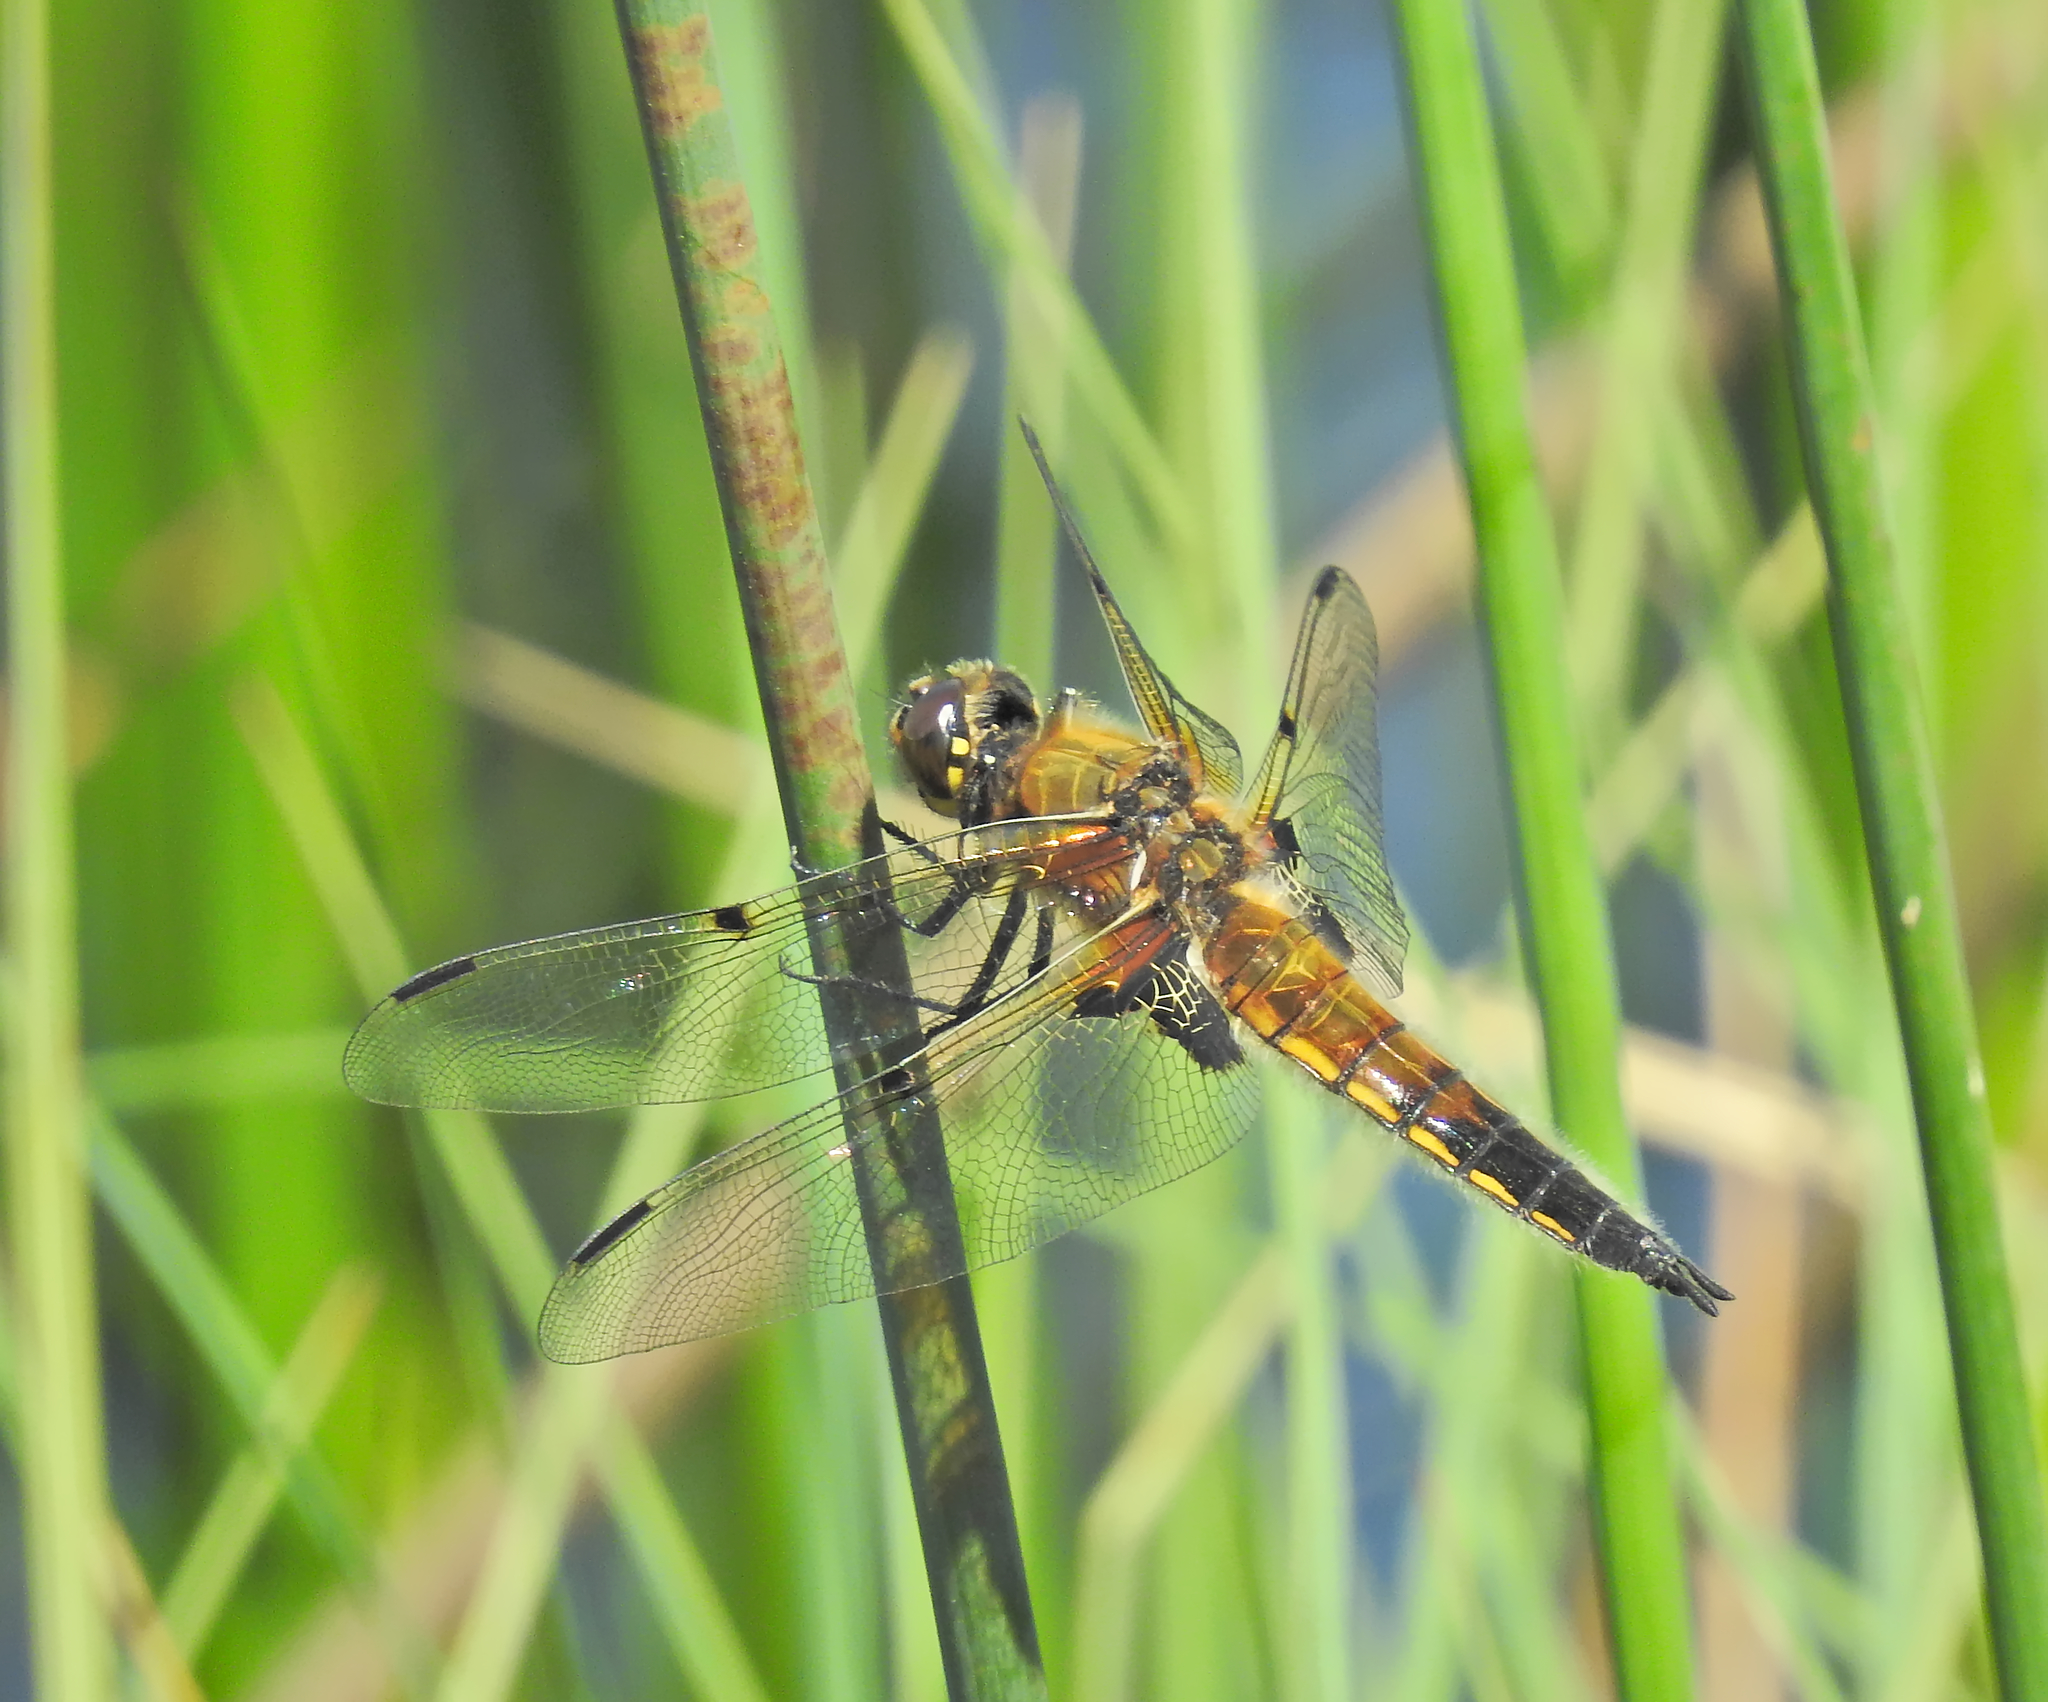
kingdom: Animalia
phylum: Arthropoda
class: Insecta
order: Odonata
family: Libellulidae
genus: Libellula
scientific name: Libellula quadrimaculata
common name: Four-spotted chaser
